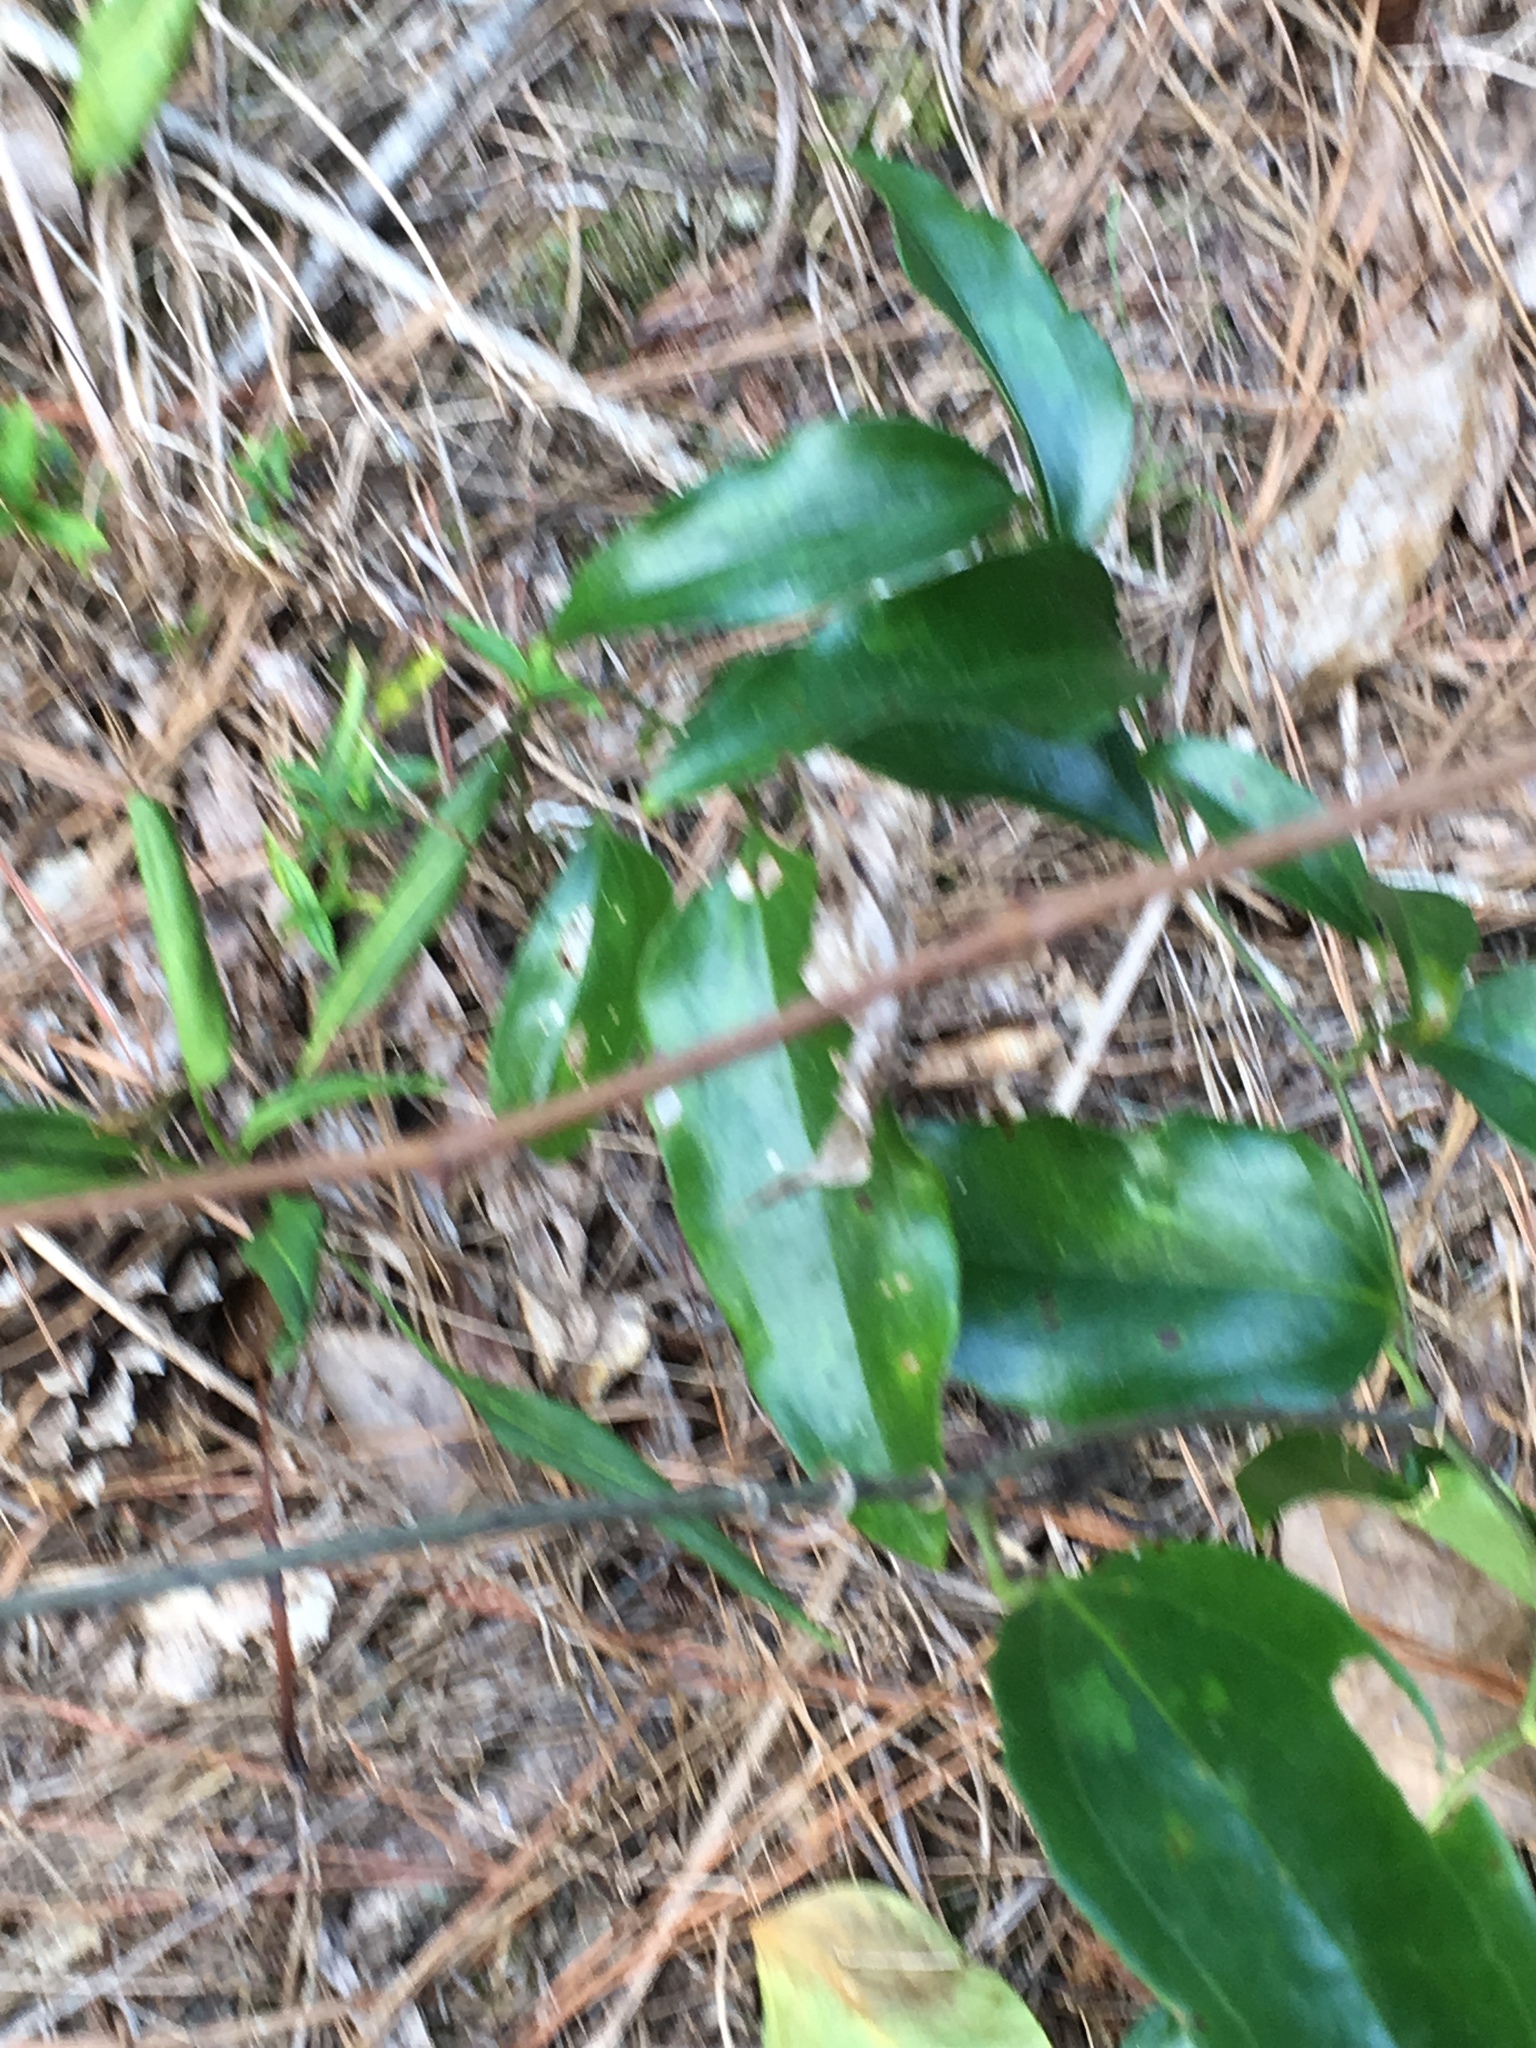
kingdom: Plantae
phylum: Tracheophyta
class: Liliopsida
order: Liliales
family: Smilacaceae
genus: Smilax
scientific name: Smilax maritima
